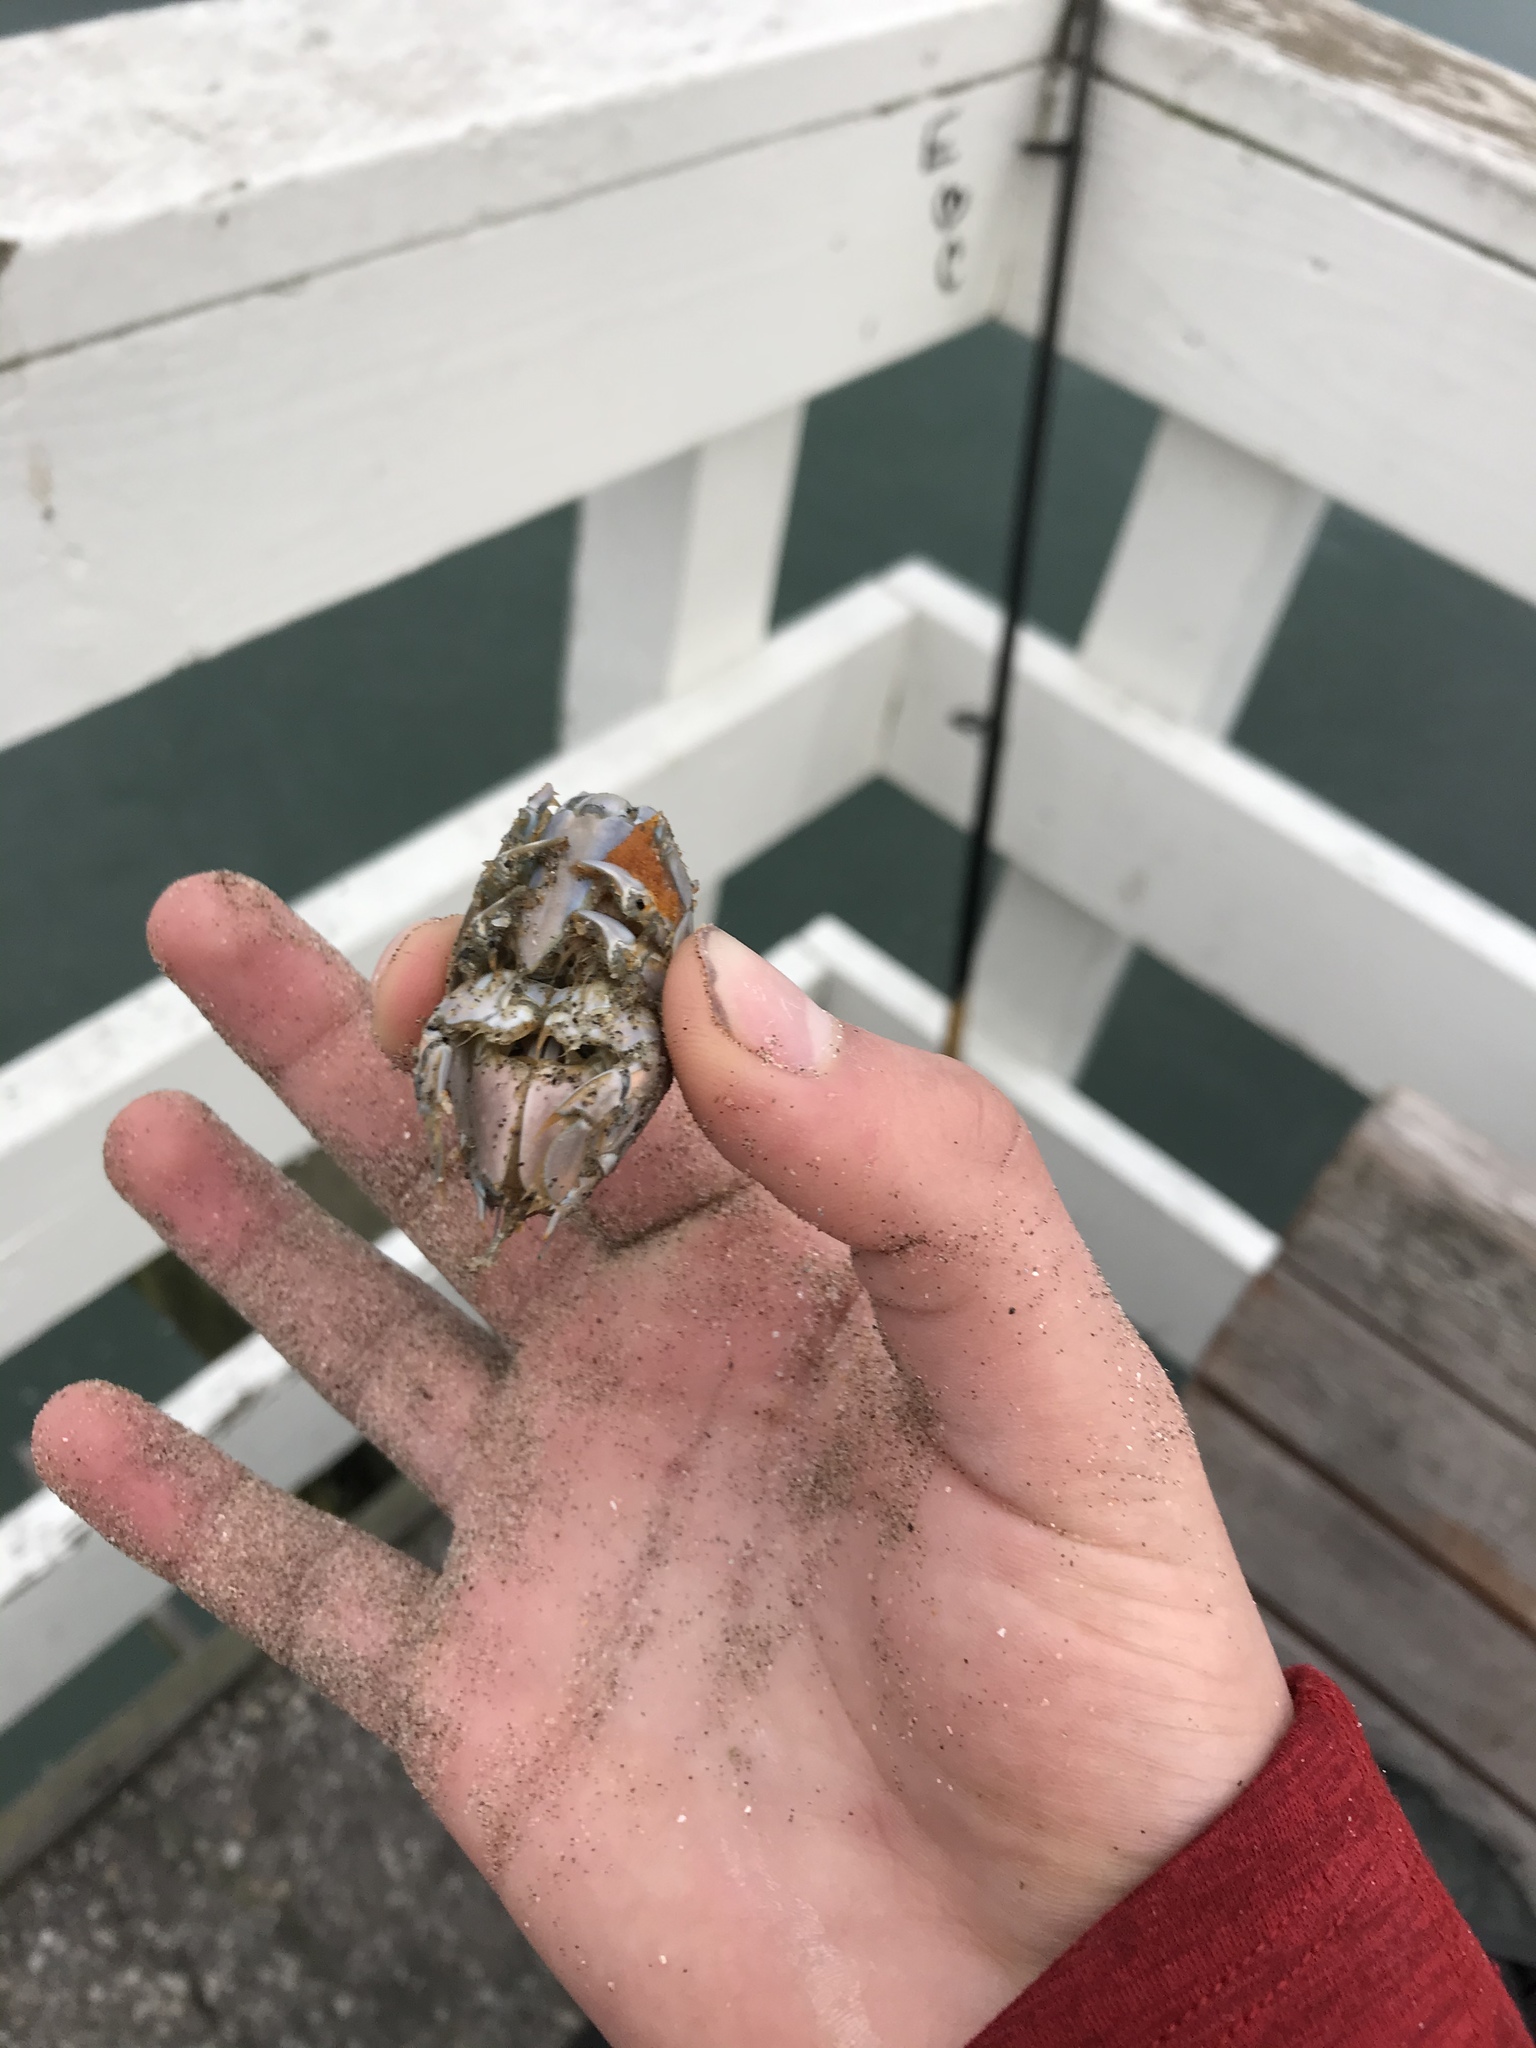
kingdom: Animalia
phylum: Arthropoda
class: Malacostraca
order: Decapoda
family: Hippidae
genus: Emerita
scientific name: Emerita analoga
